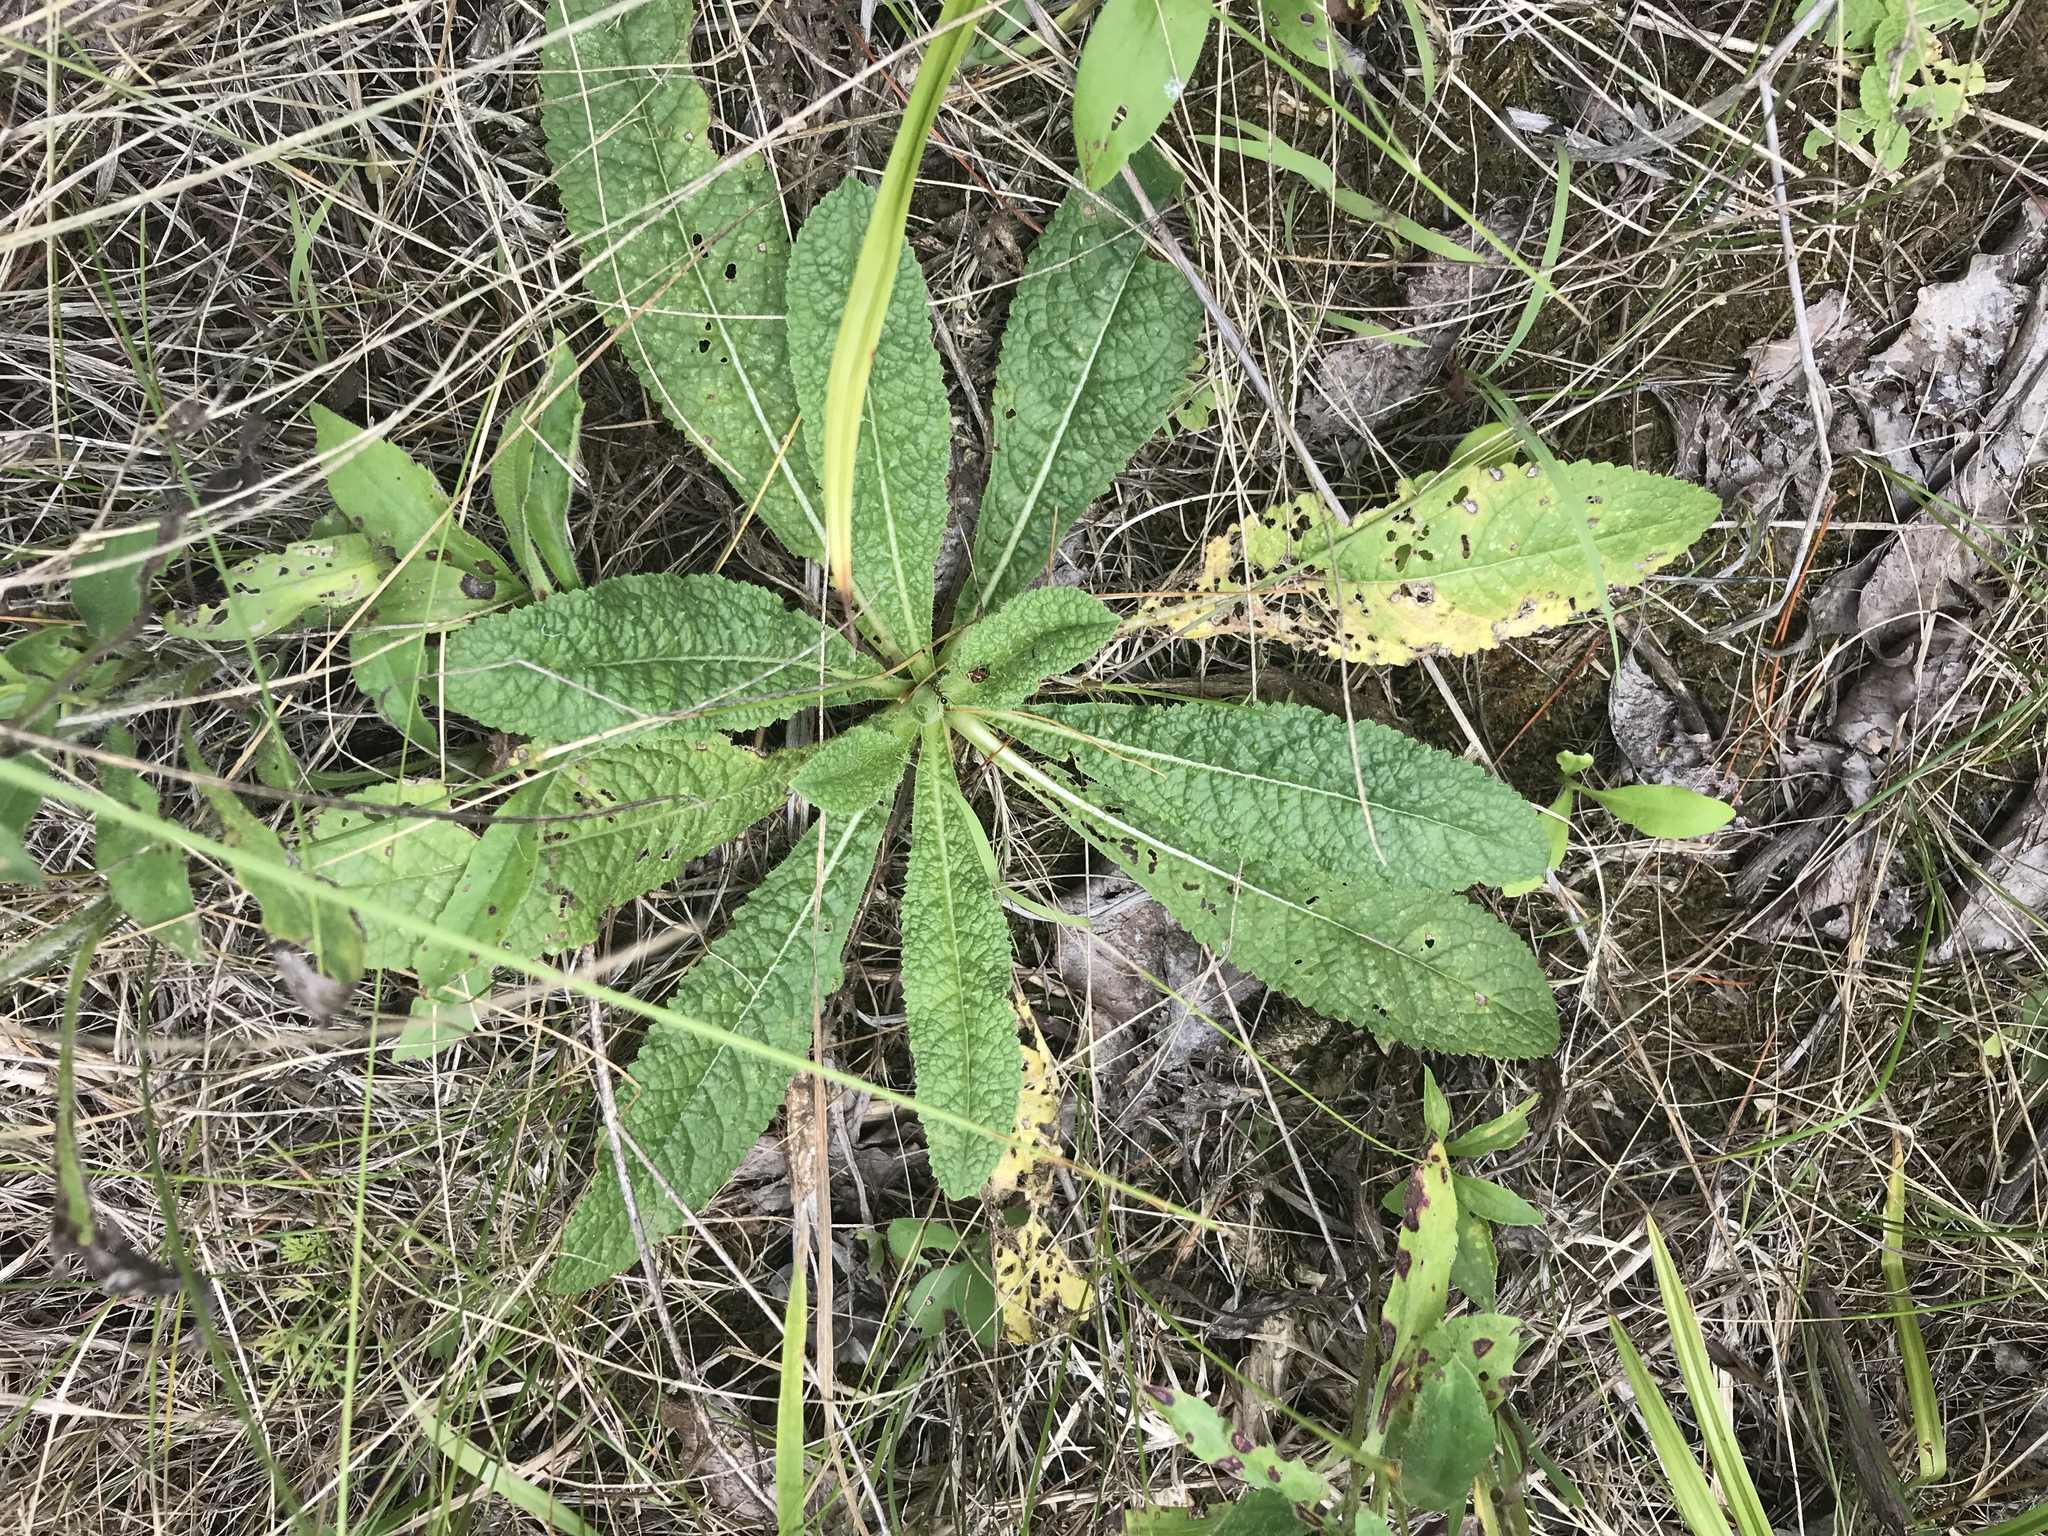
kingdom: Plantae
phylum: Tracheophyta
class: Magnoliopsida
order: Dipsacales
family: Caprifoliaceae
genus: Dipsacus
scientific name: Dipsacus fullonum
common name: Teasel
